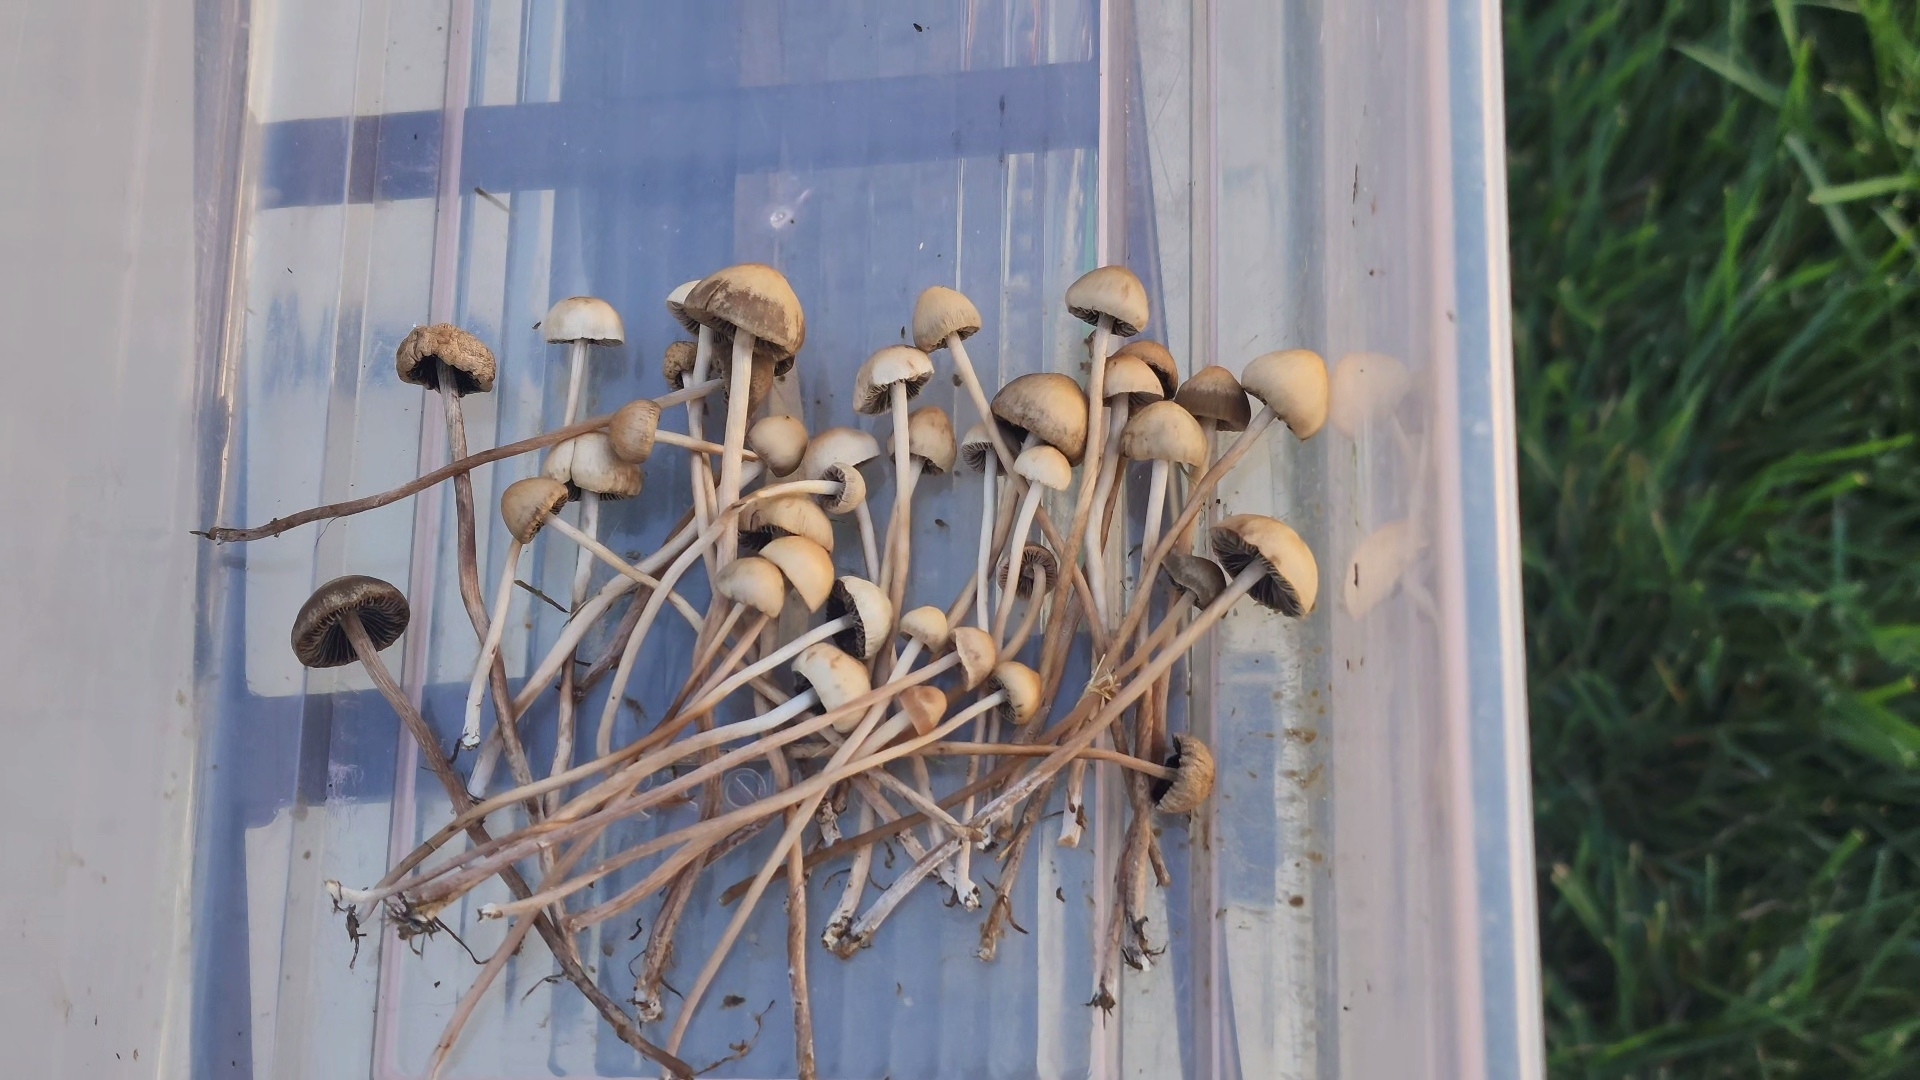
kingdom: Fungi
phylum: Basidiomycota
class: Agaricomycetes
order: Agaricales
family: Bolbitiaceae
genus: Panaeolus
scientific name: Panaeolus cinctulus
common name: Banded mottlegill
